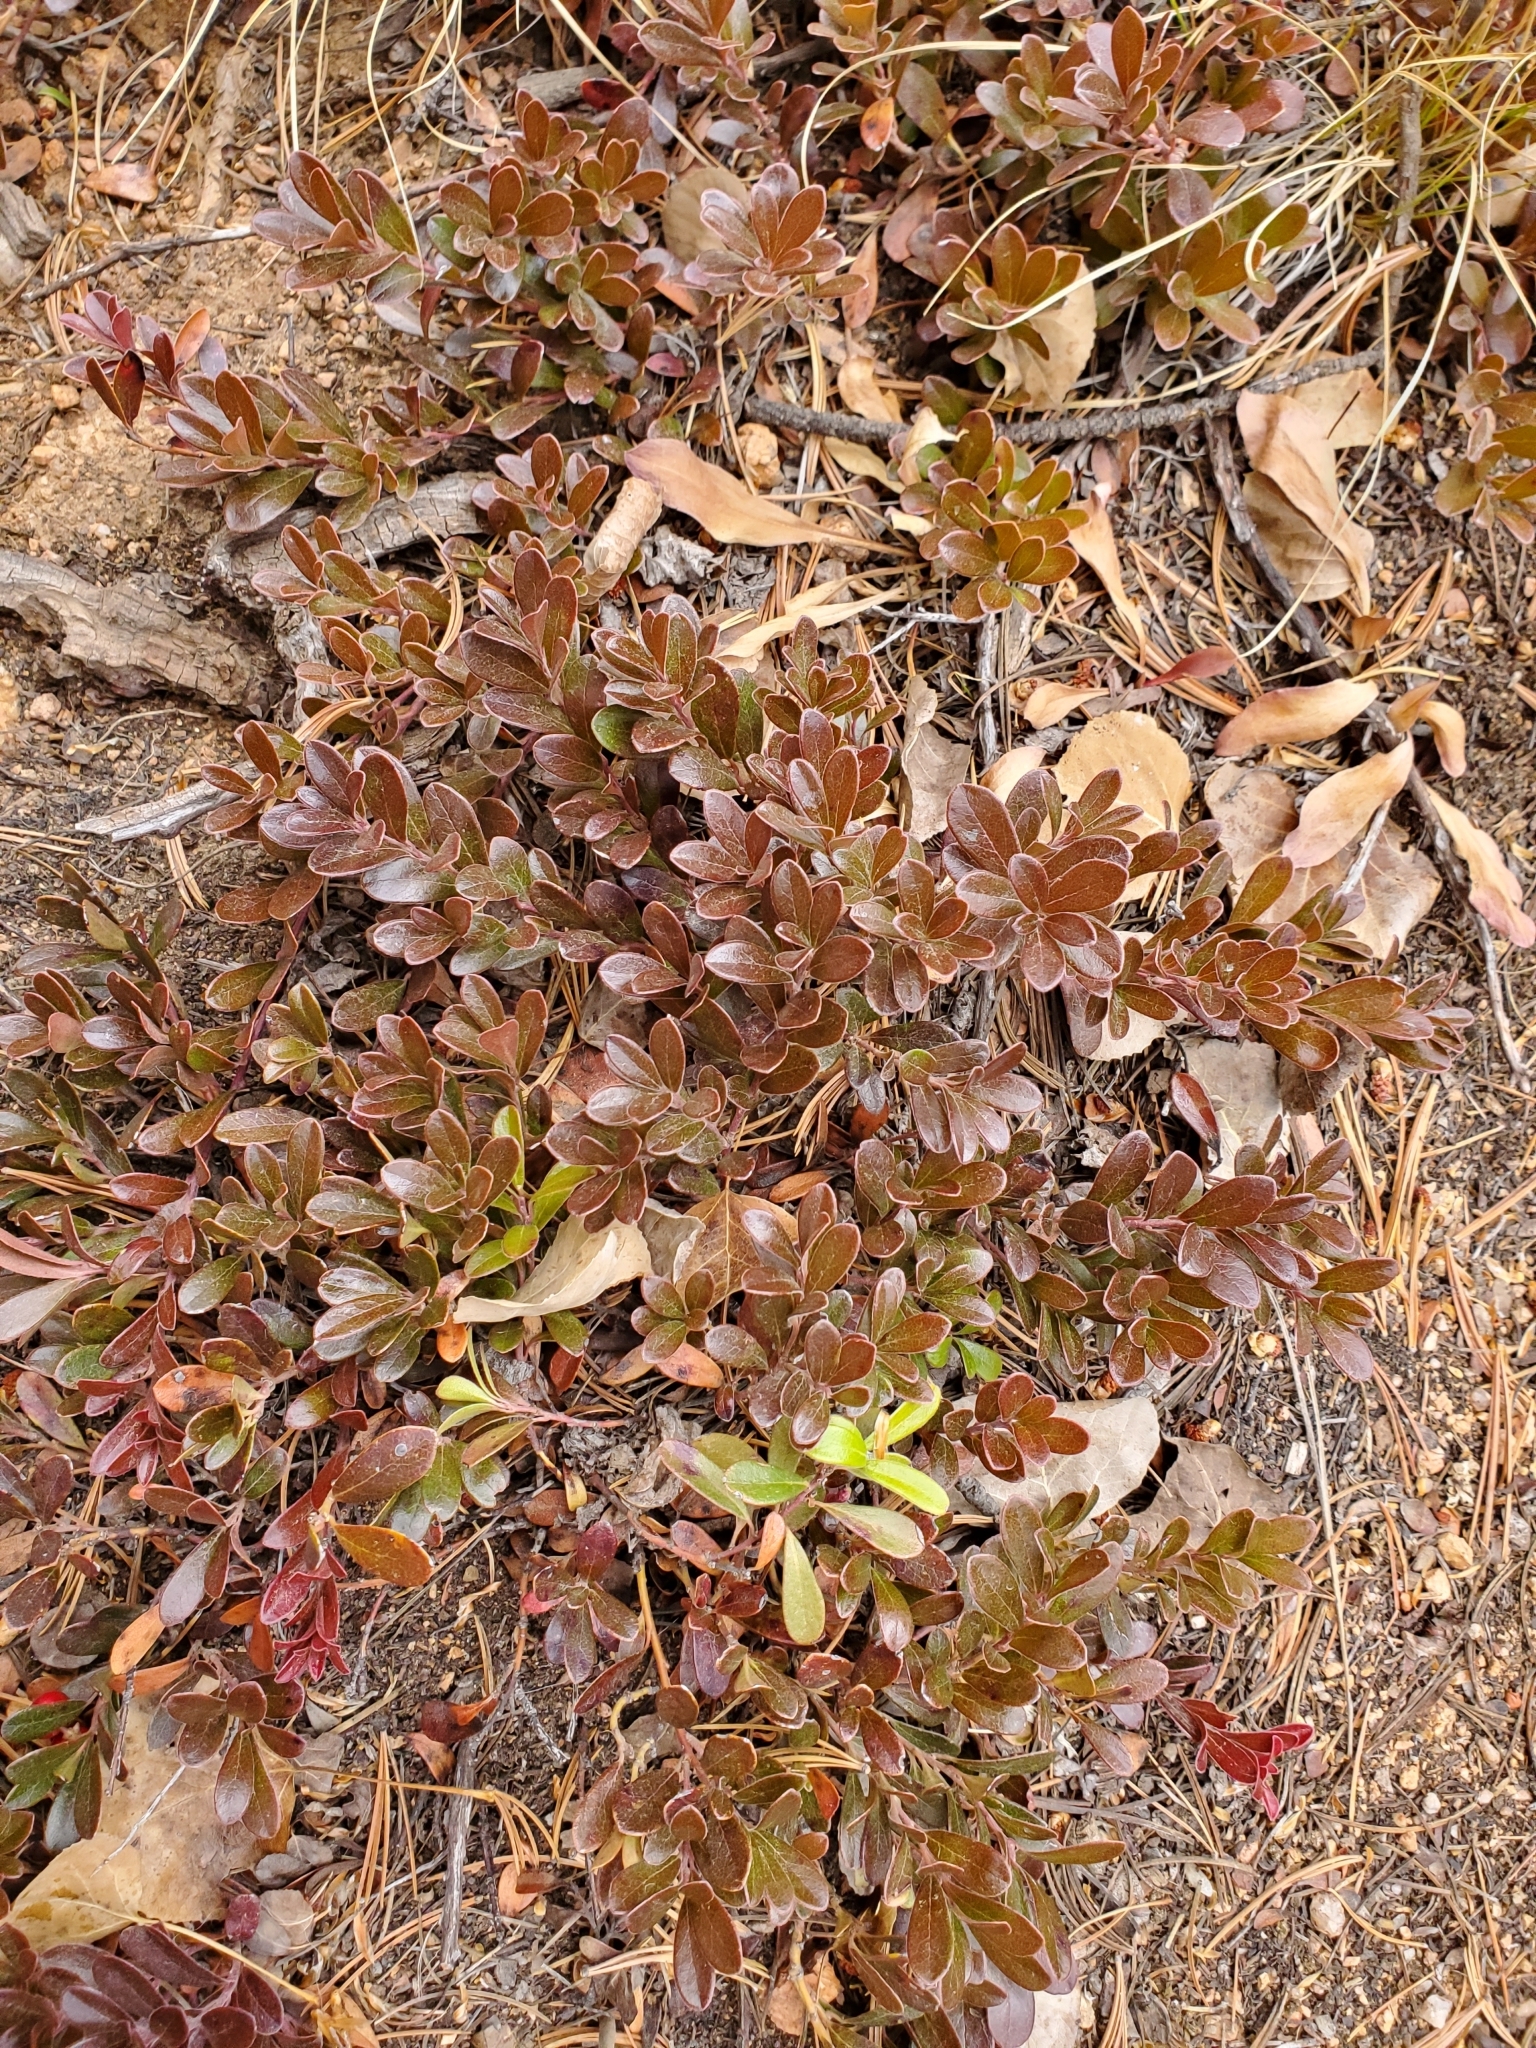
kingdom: Plantae
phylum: Tracheophyta
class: Magnoliopsida
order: Ericales
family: Ericaceae
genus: Arctostaphylos
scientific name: Arctostaphylos uva-ursi
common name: Bearberry
